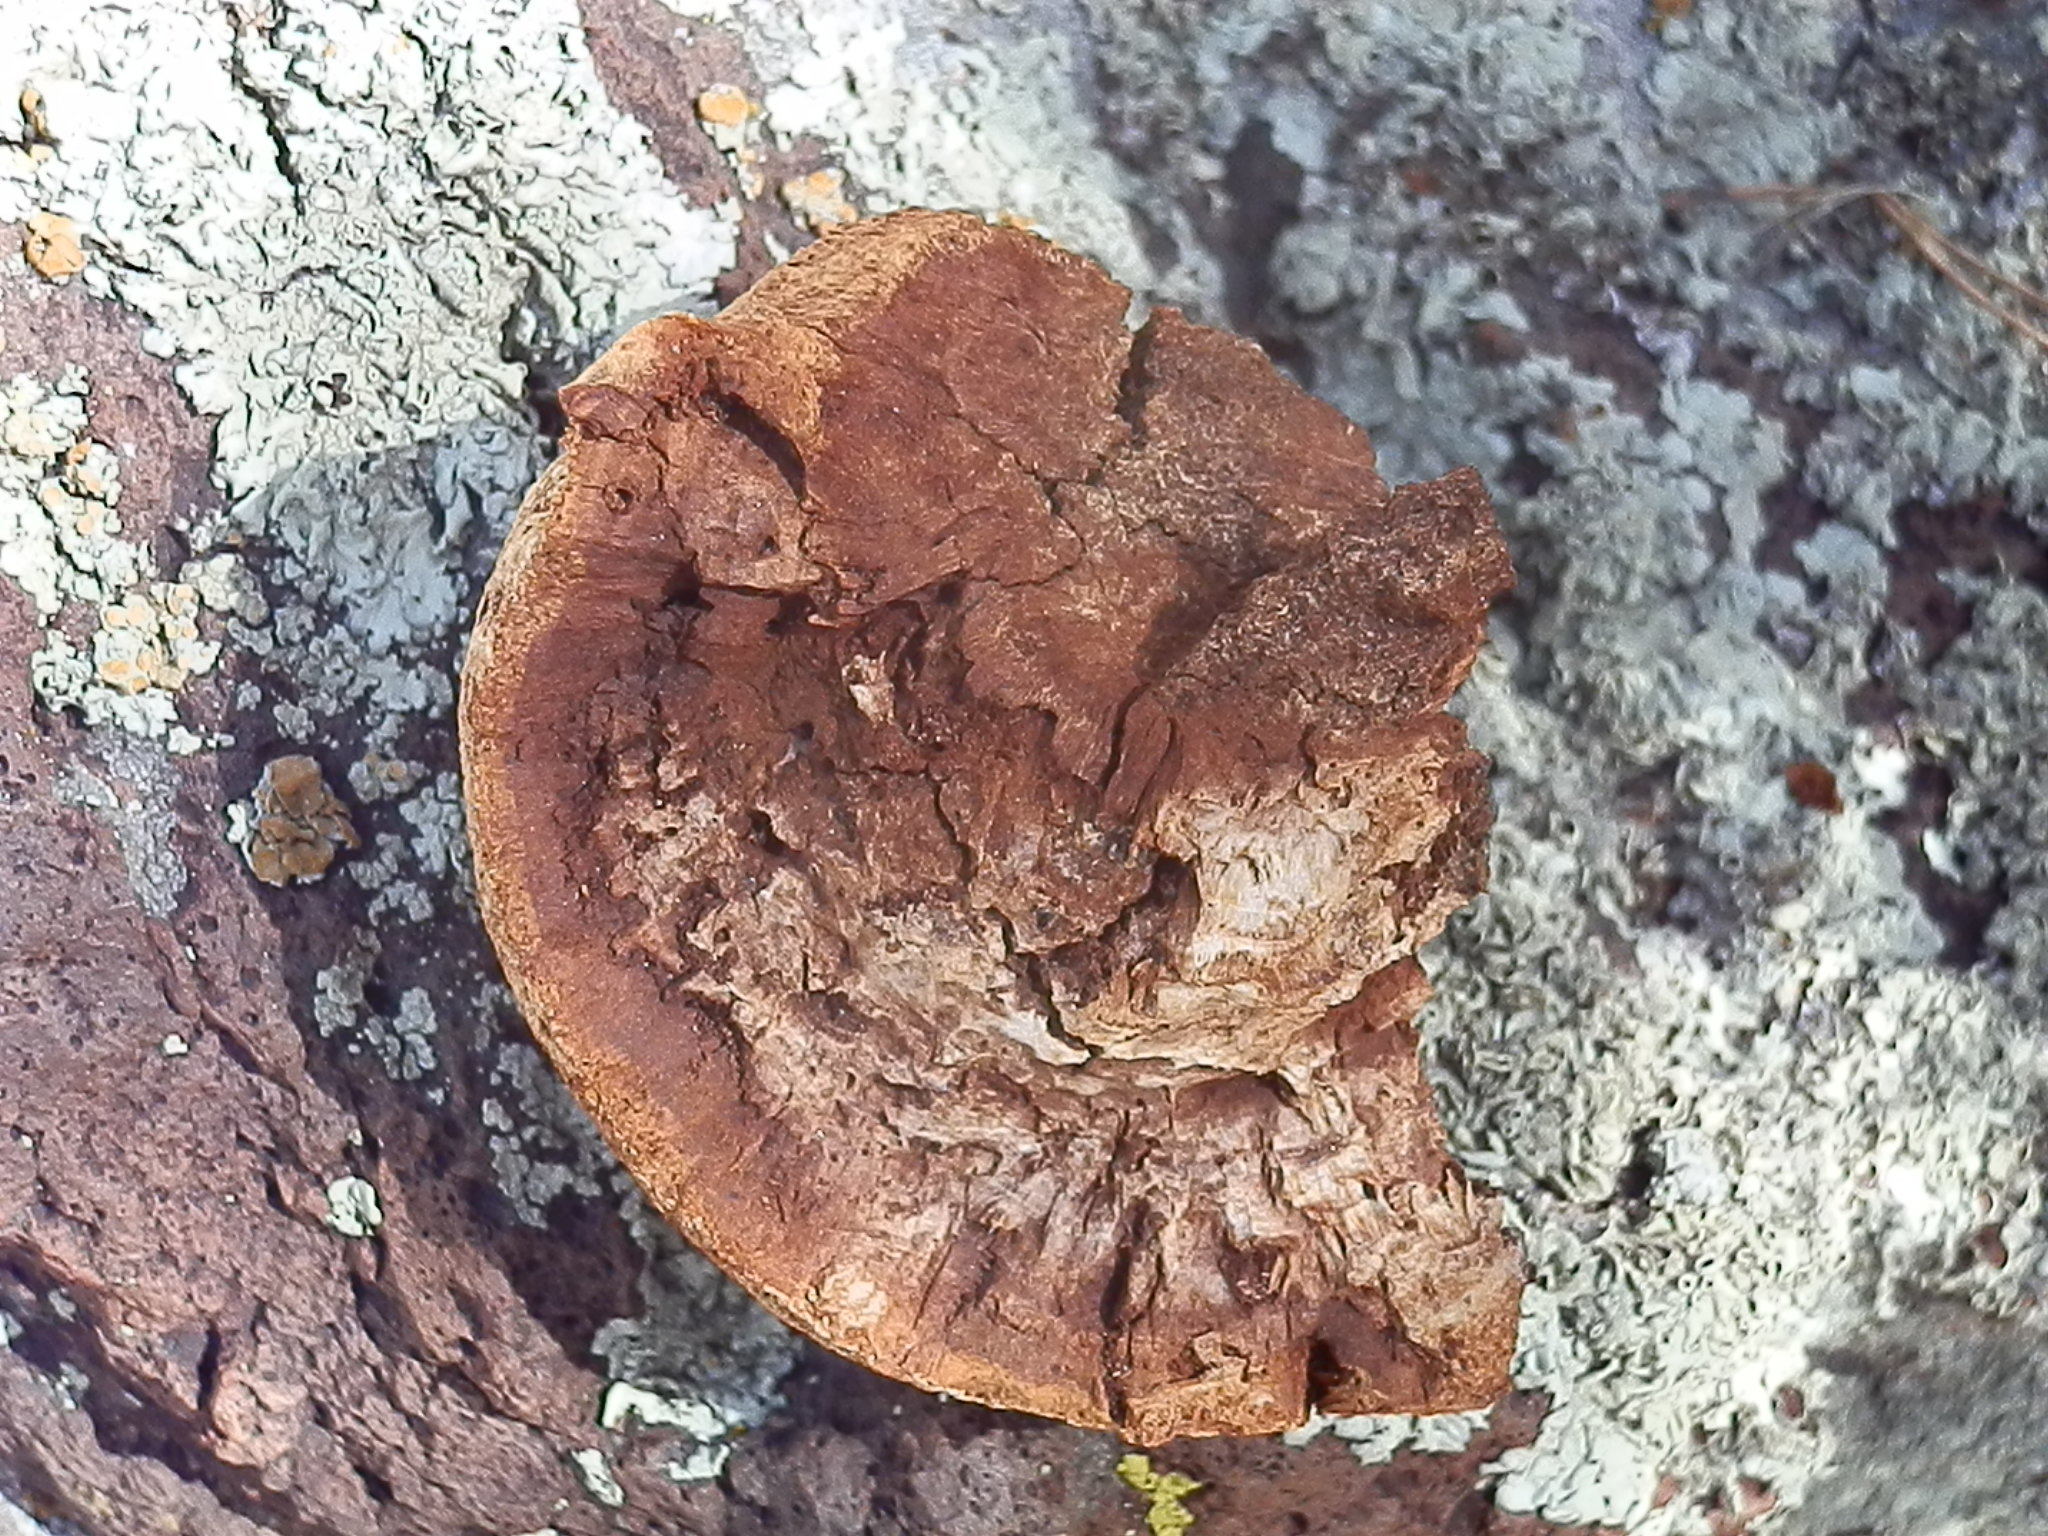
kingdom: Fungi
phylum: Basidiomycota
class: Agaricomycetes
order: Hymenochaetales
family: Hymenochaetaceae
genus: Inocutis
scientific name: Inocutis dryophila
